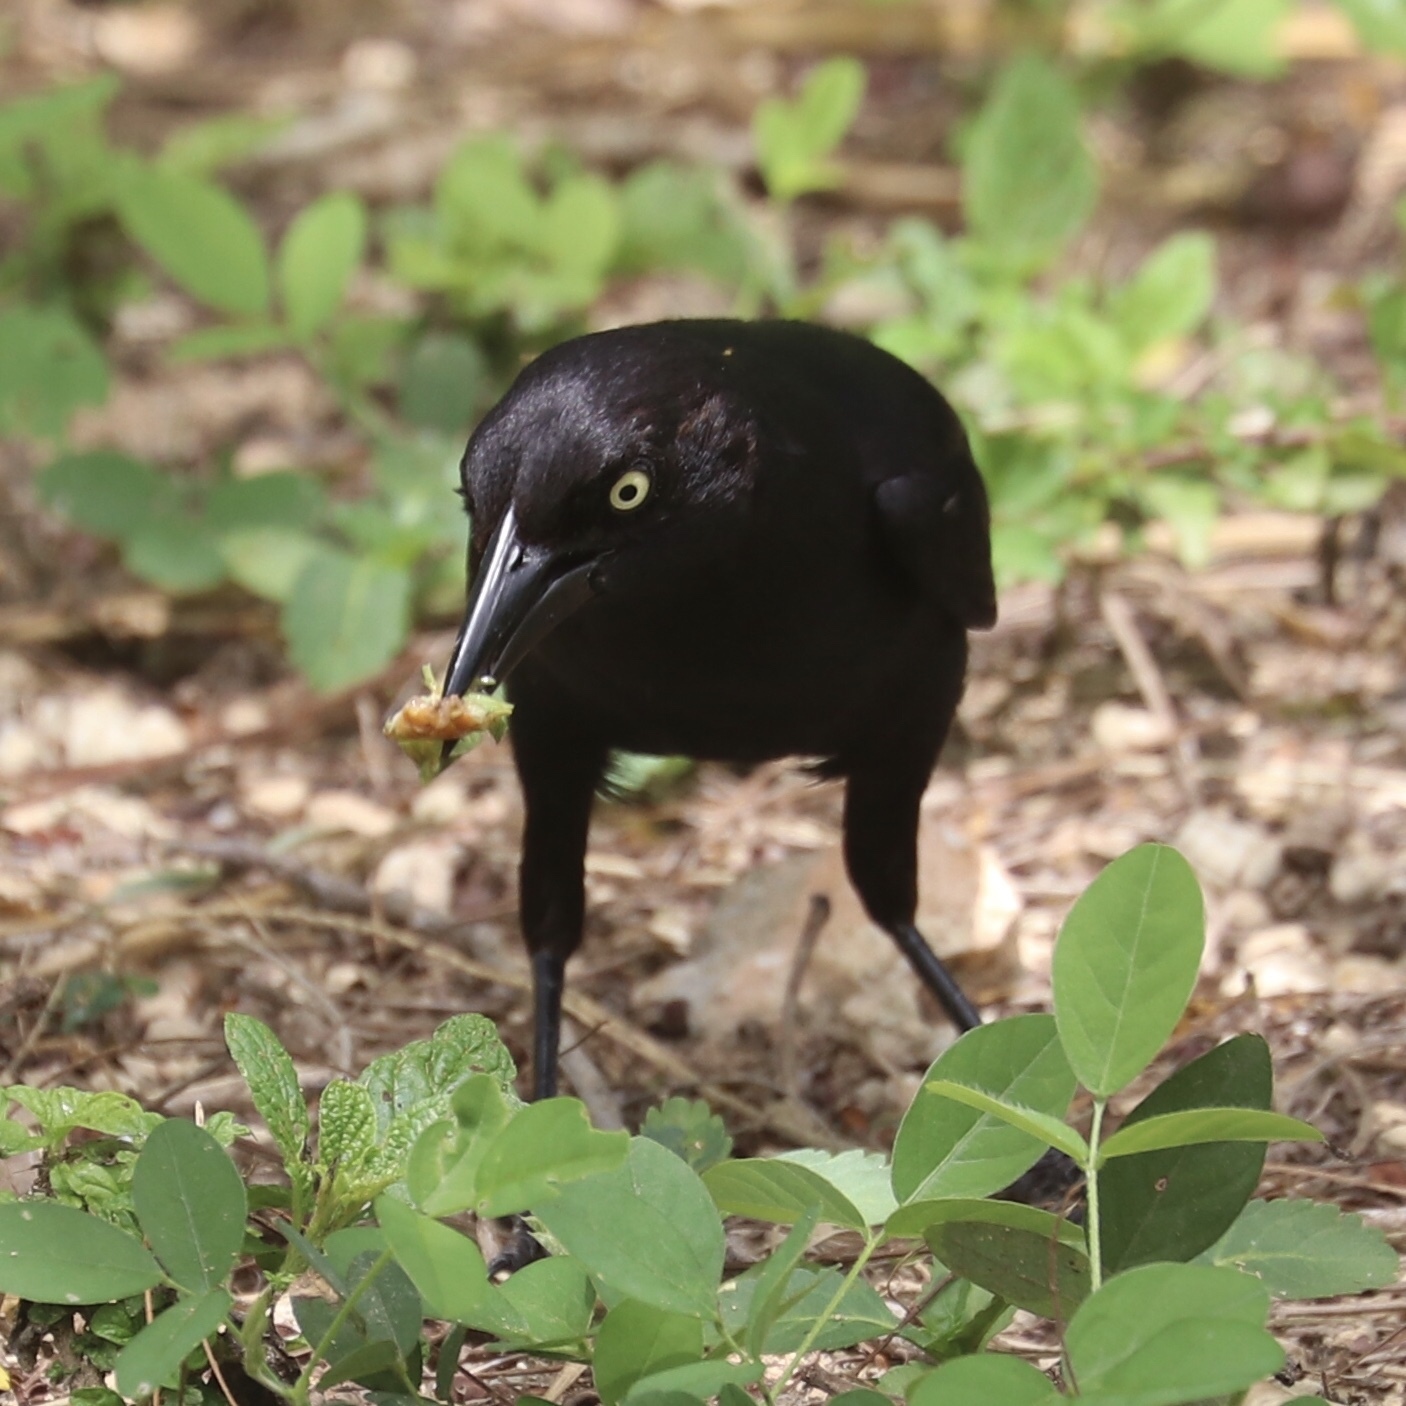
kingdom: Animalia
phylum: Chordata
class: Aves
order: Passeriformes
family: Icteridae
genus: Quiscalus
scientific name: Quiscalus niger
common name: Greater antillean grackle
